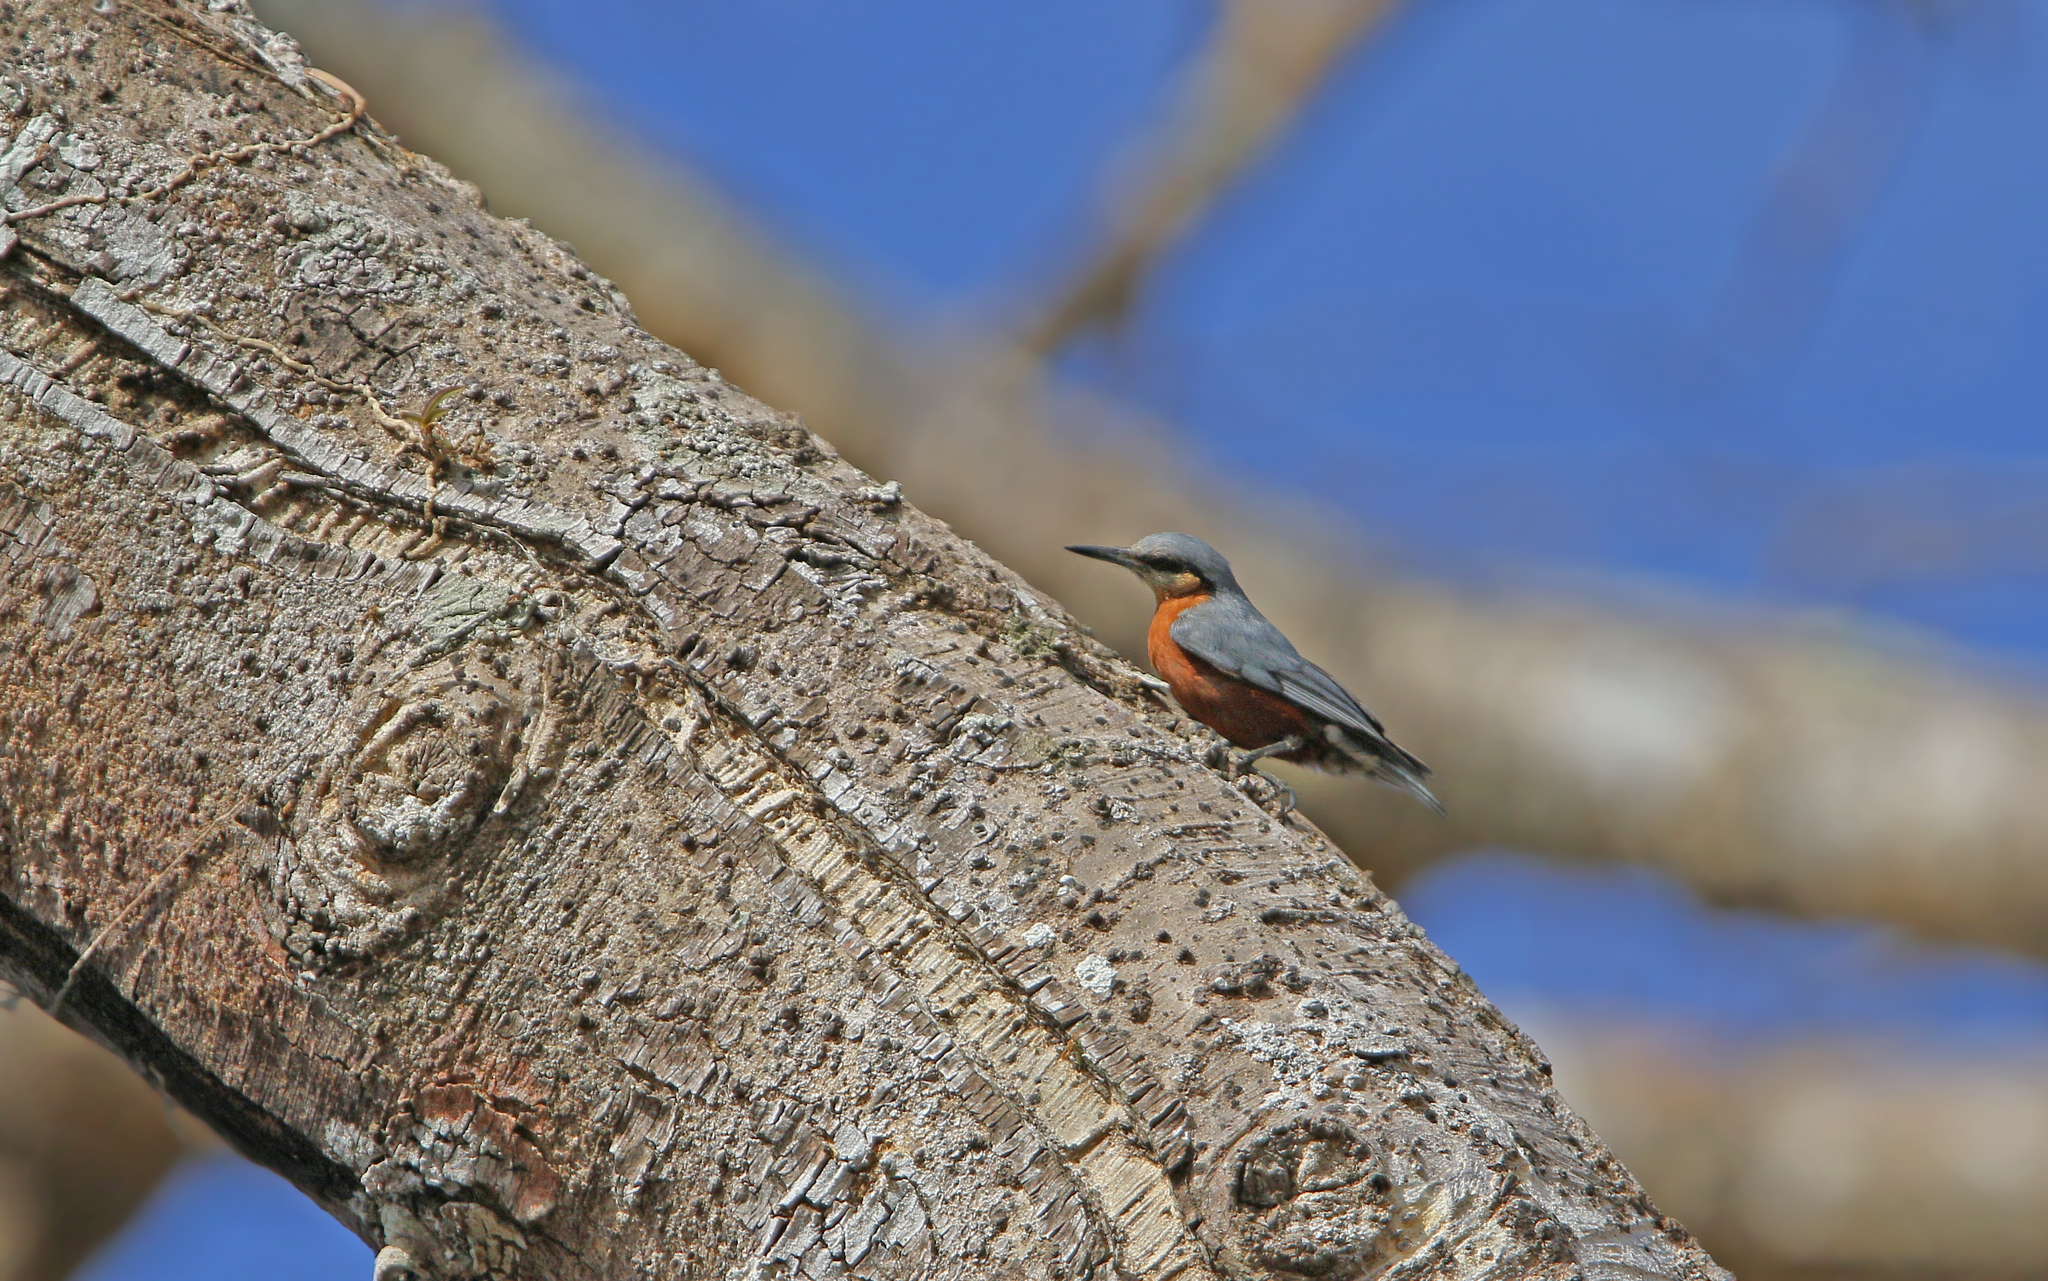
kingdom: Animalia
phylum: Chordata
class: Aves
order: Passeriformes
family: Sittidae
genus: Sitta
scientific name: Sitta neglecta
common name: Burmese nuthatch
